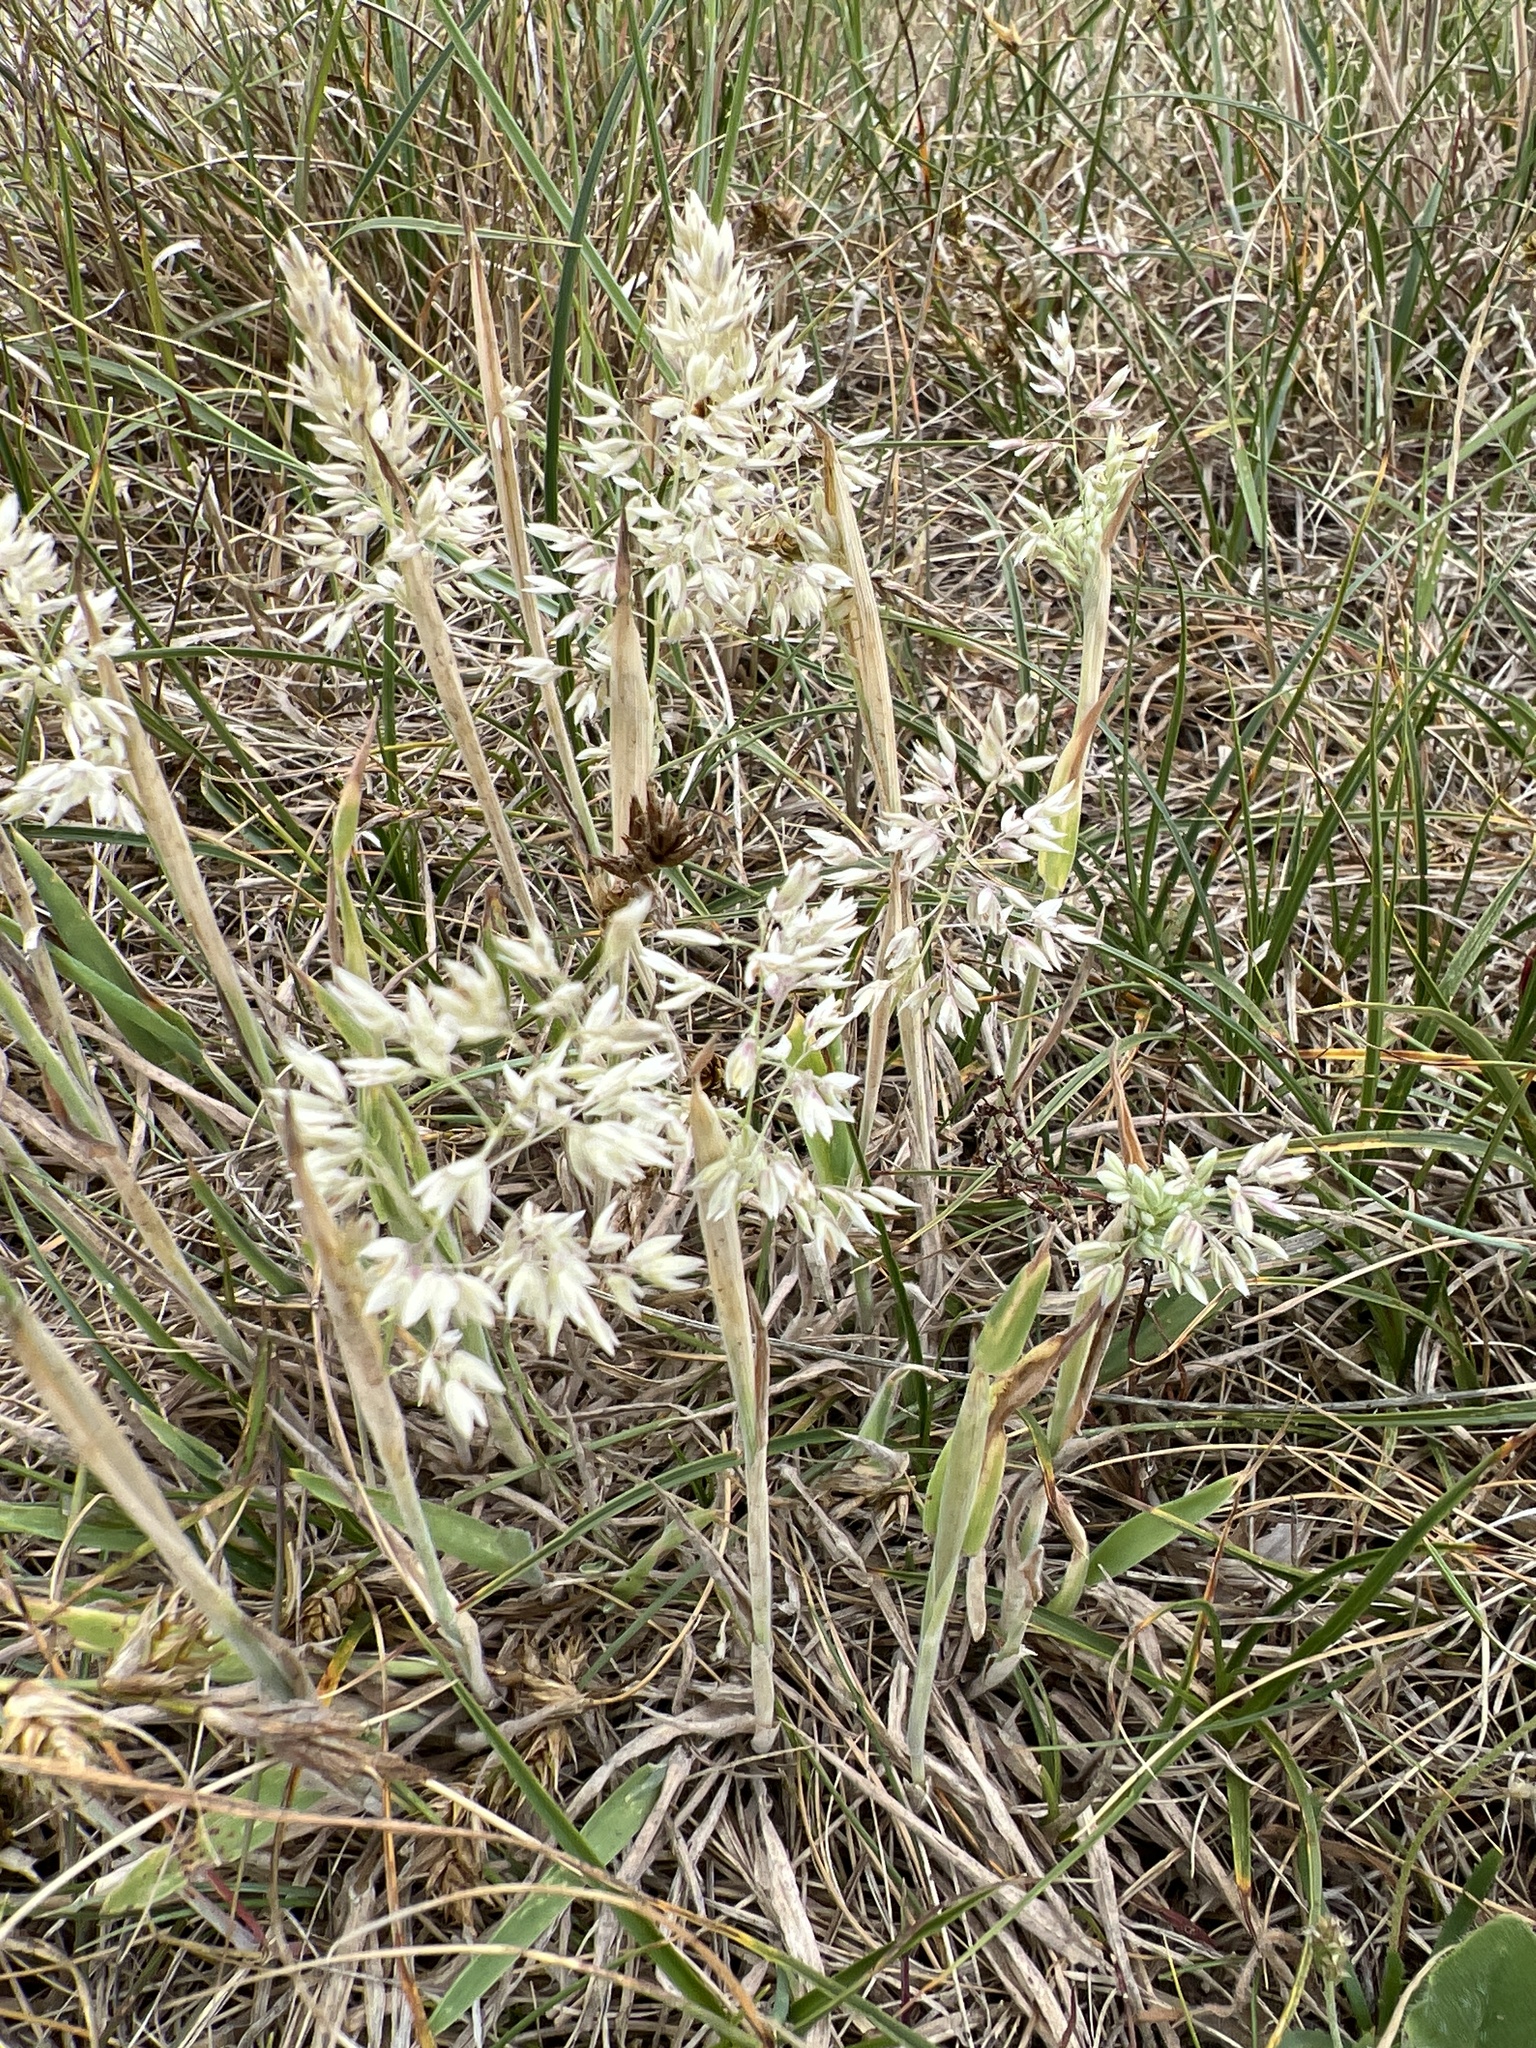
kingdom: Plantae
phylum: Tracheophyta
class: Liliopsida
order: Poales
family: Poaceae
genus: Holcus
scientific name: Holcus lanatus
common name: Yorkshire-fog
